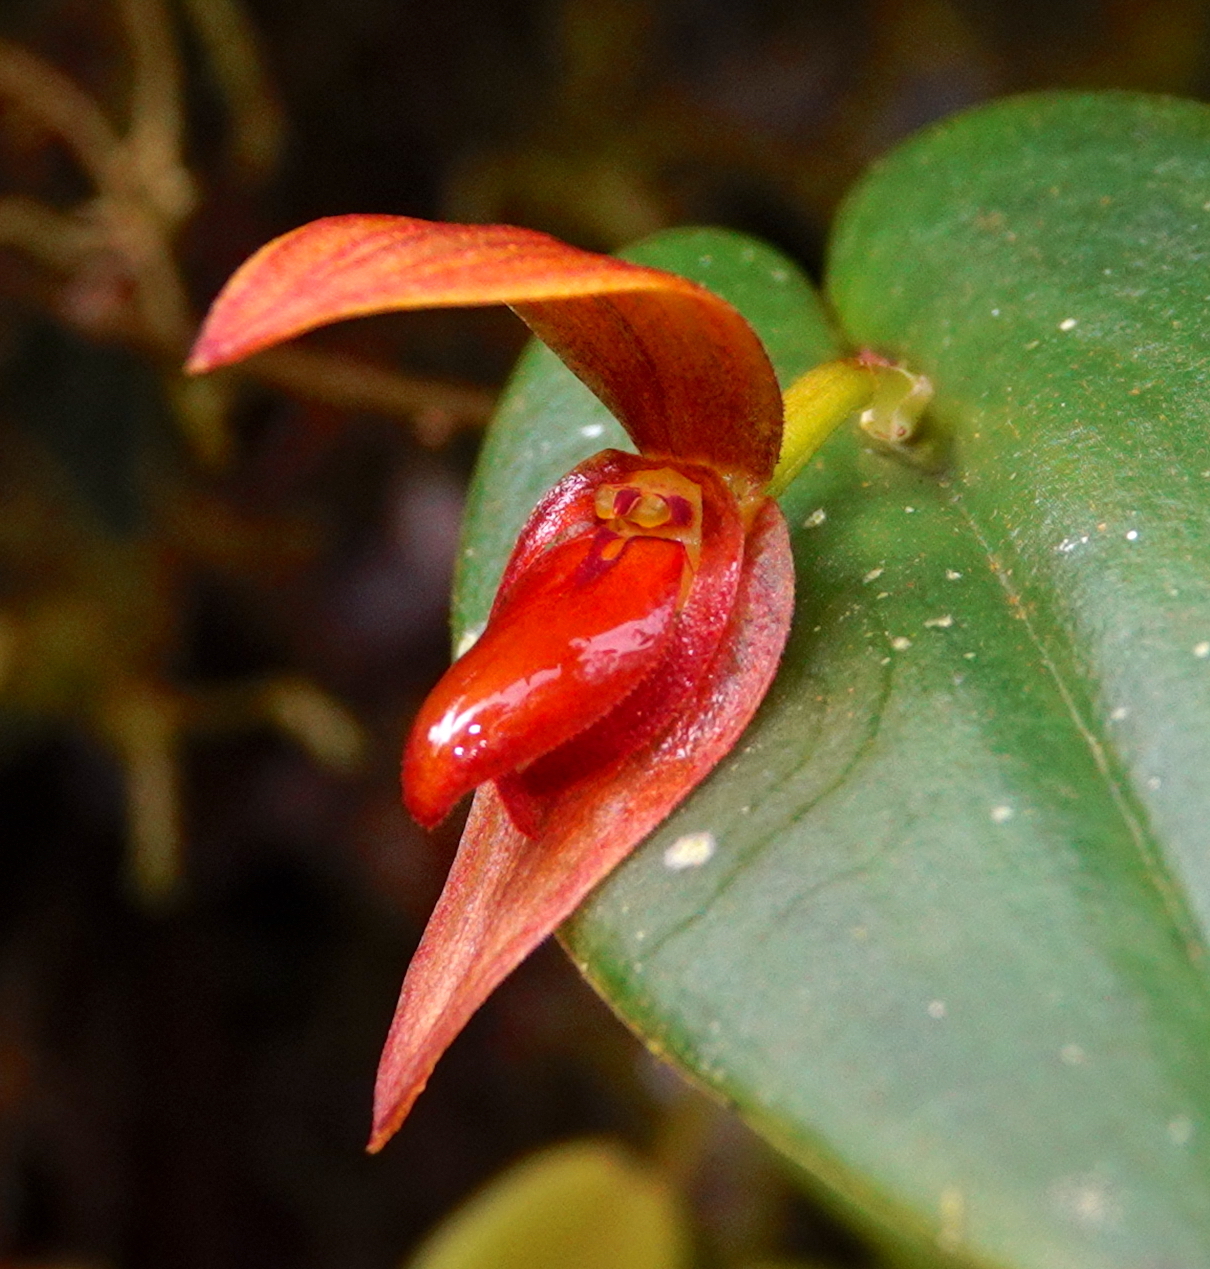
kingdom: Plantae
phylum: Tracheophyta
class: Liliopsida
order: Asparagales
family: Orchidaceae
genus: Pleurothallis
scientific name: Pleurothallis adonis
